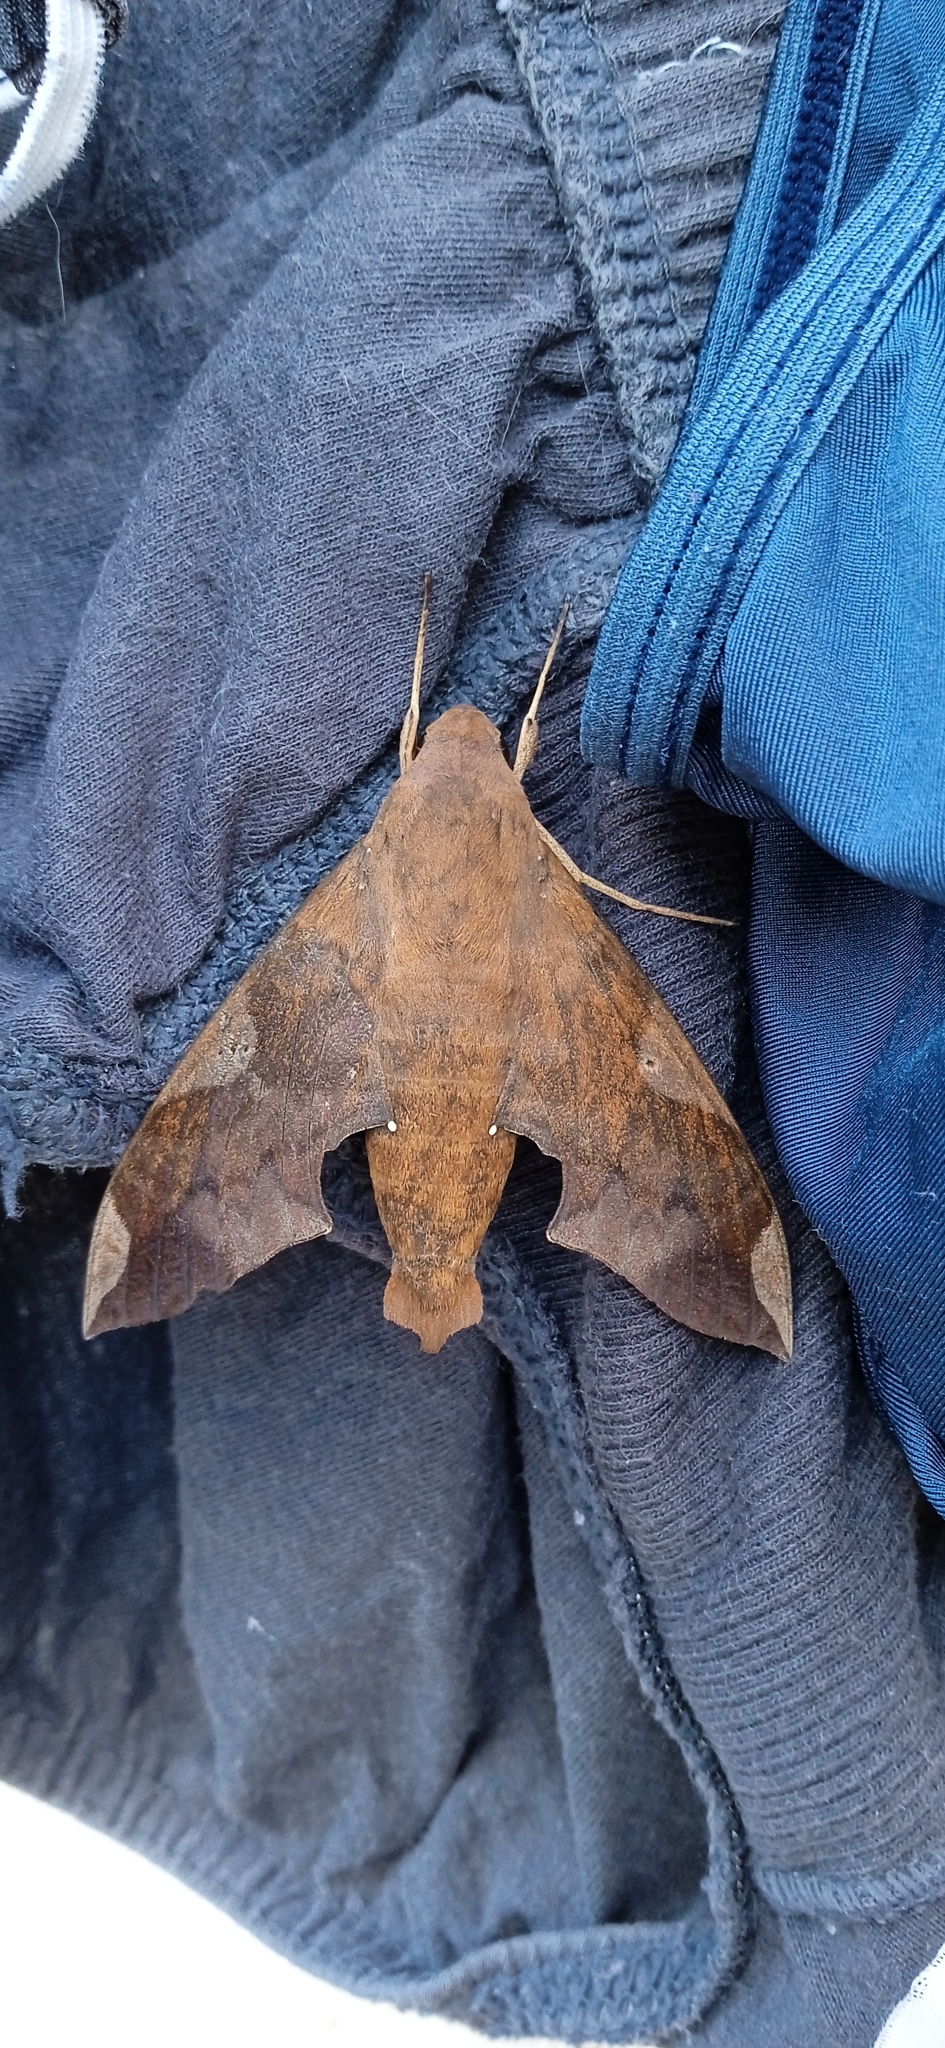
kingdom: Animalia
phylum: Arthropoda
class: Insecta
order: Lepidoptera
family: Sphingidae
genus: Pachylia
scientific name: Pachylia syces
